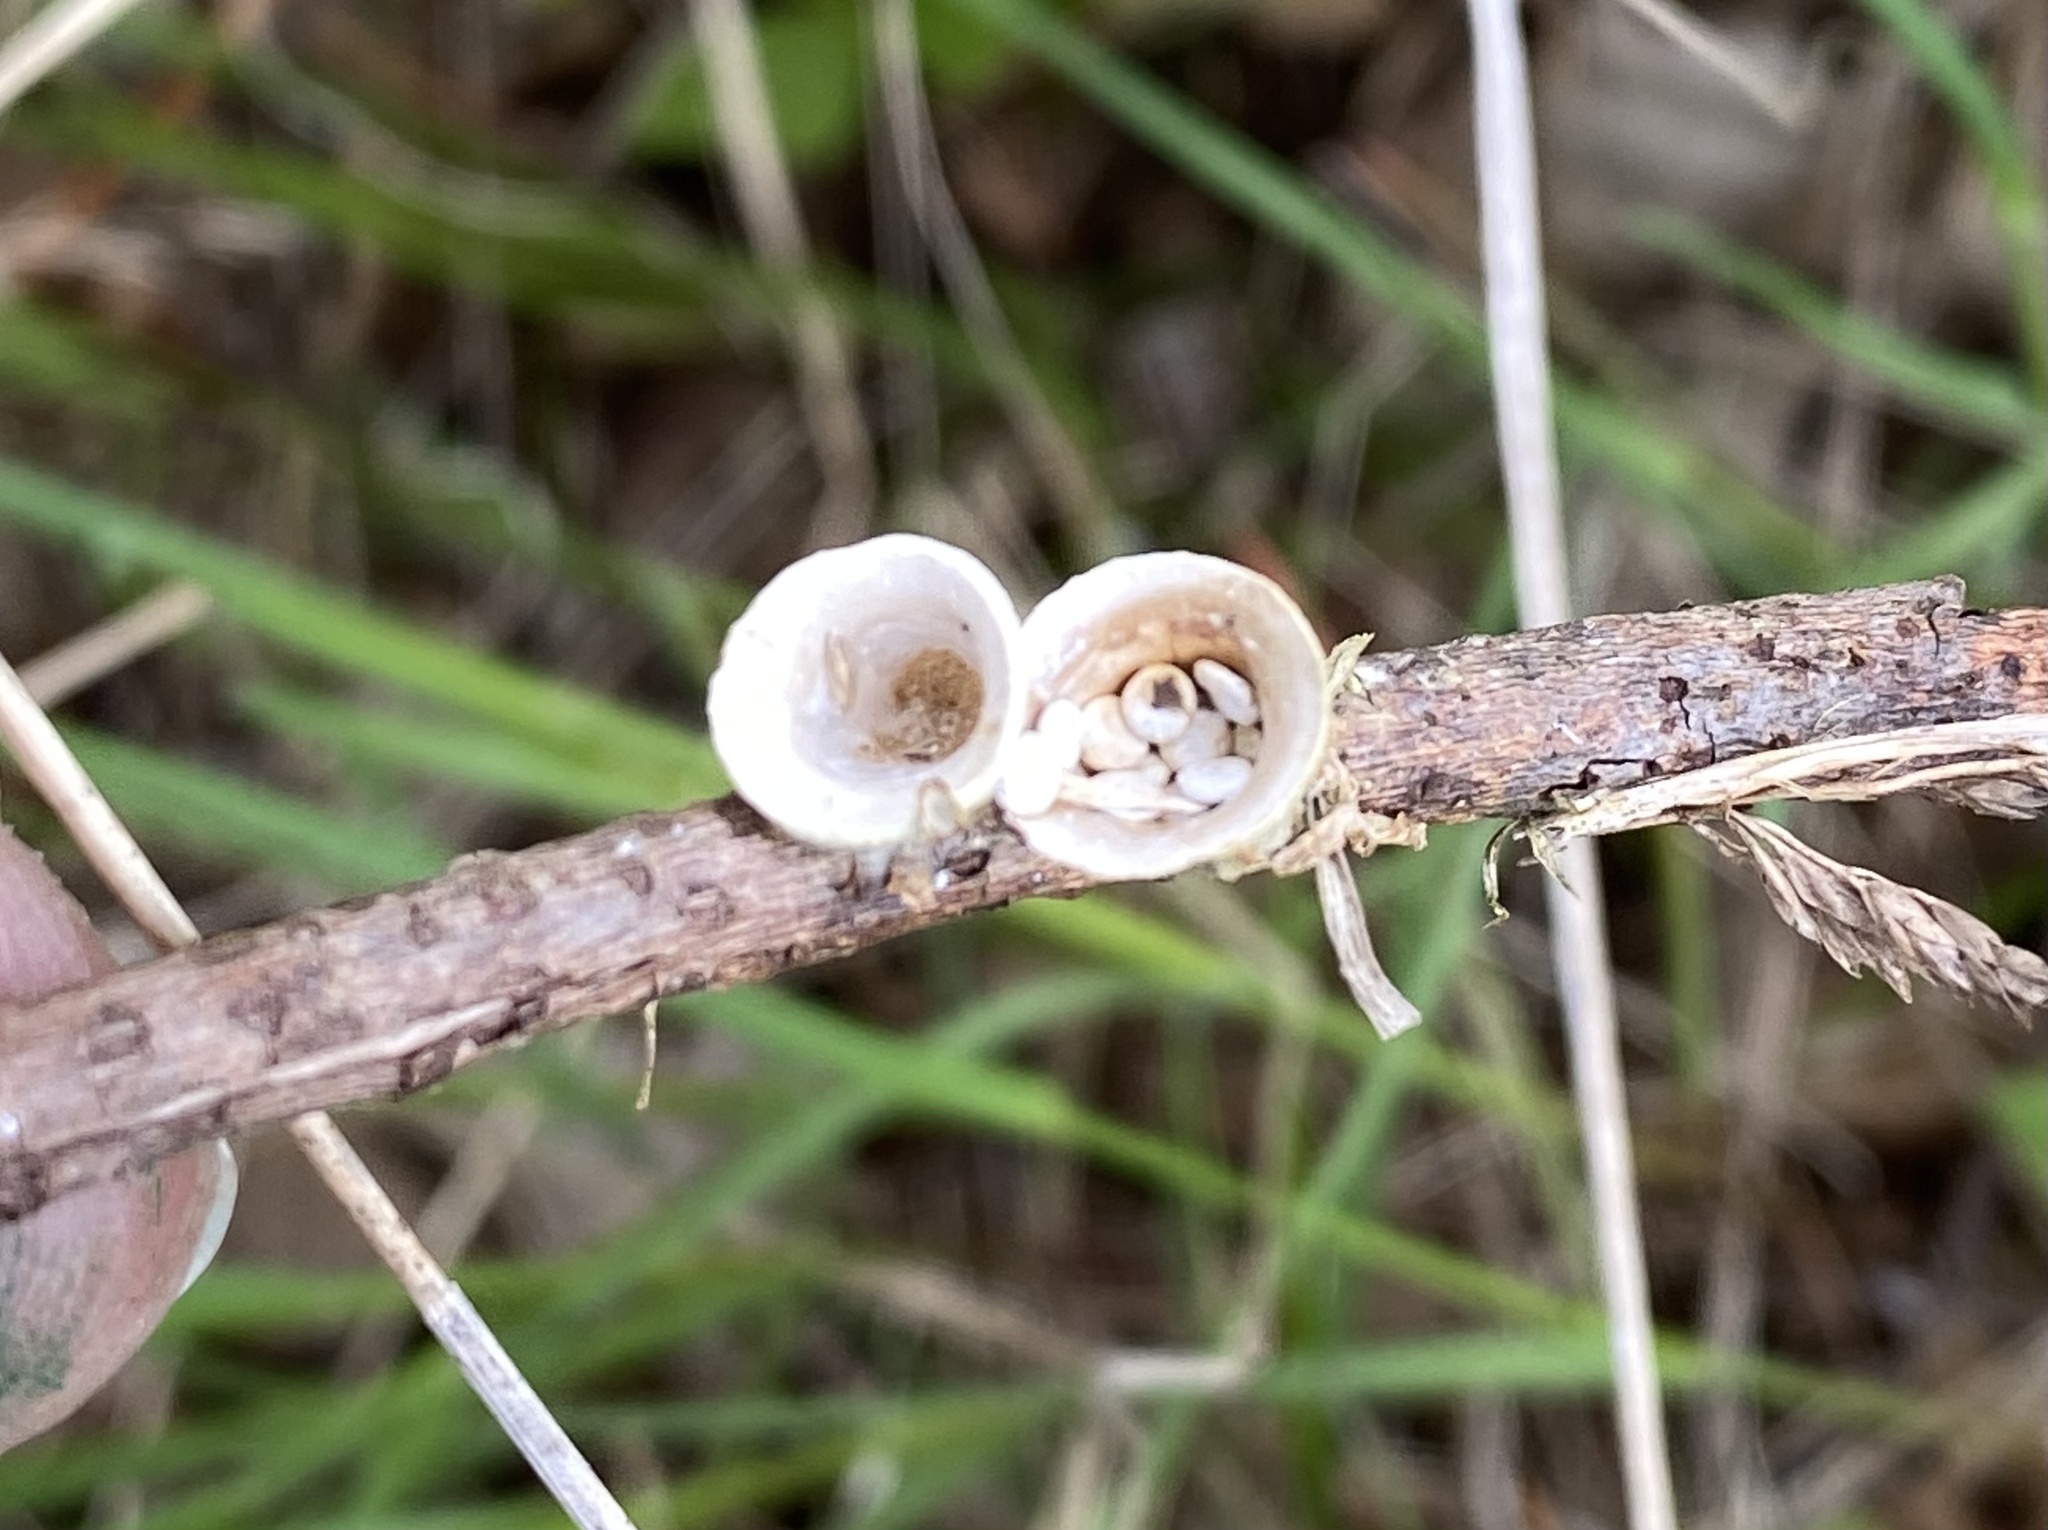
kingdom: Fungi
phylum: Basidiomycota
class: Agaricomycetes
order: Agaricales
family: Nidulariaceae
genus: Crucibulum
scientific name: Crucibulum laeve
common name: Common bird's nest
